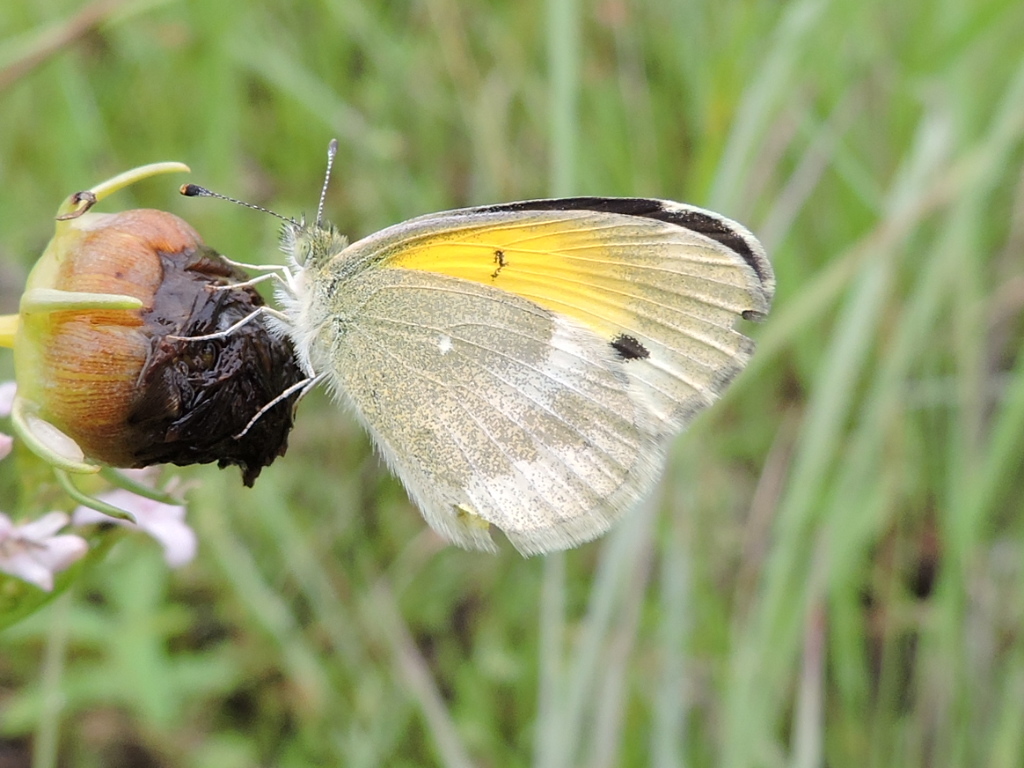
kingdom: Animalia
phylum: Arthropoda
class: Insecta
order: Lepidoptera
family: Pieridae
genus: Nathalis
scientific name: Nathalis iole
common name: Dainty sulphur
